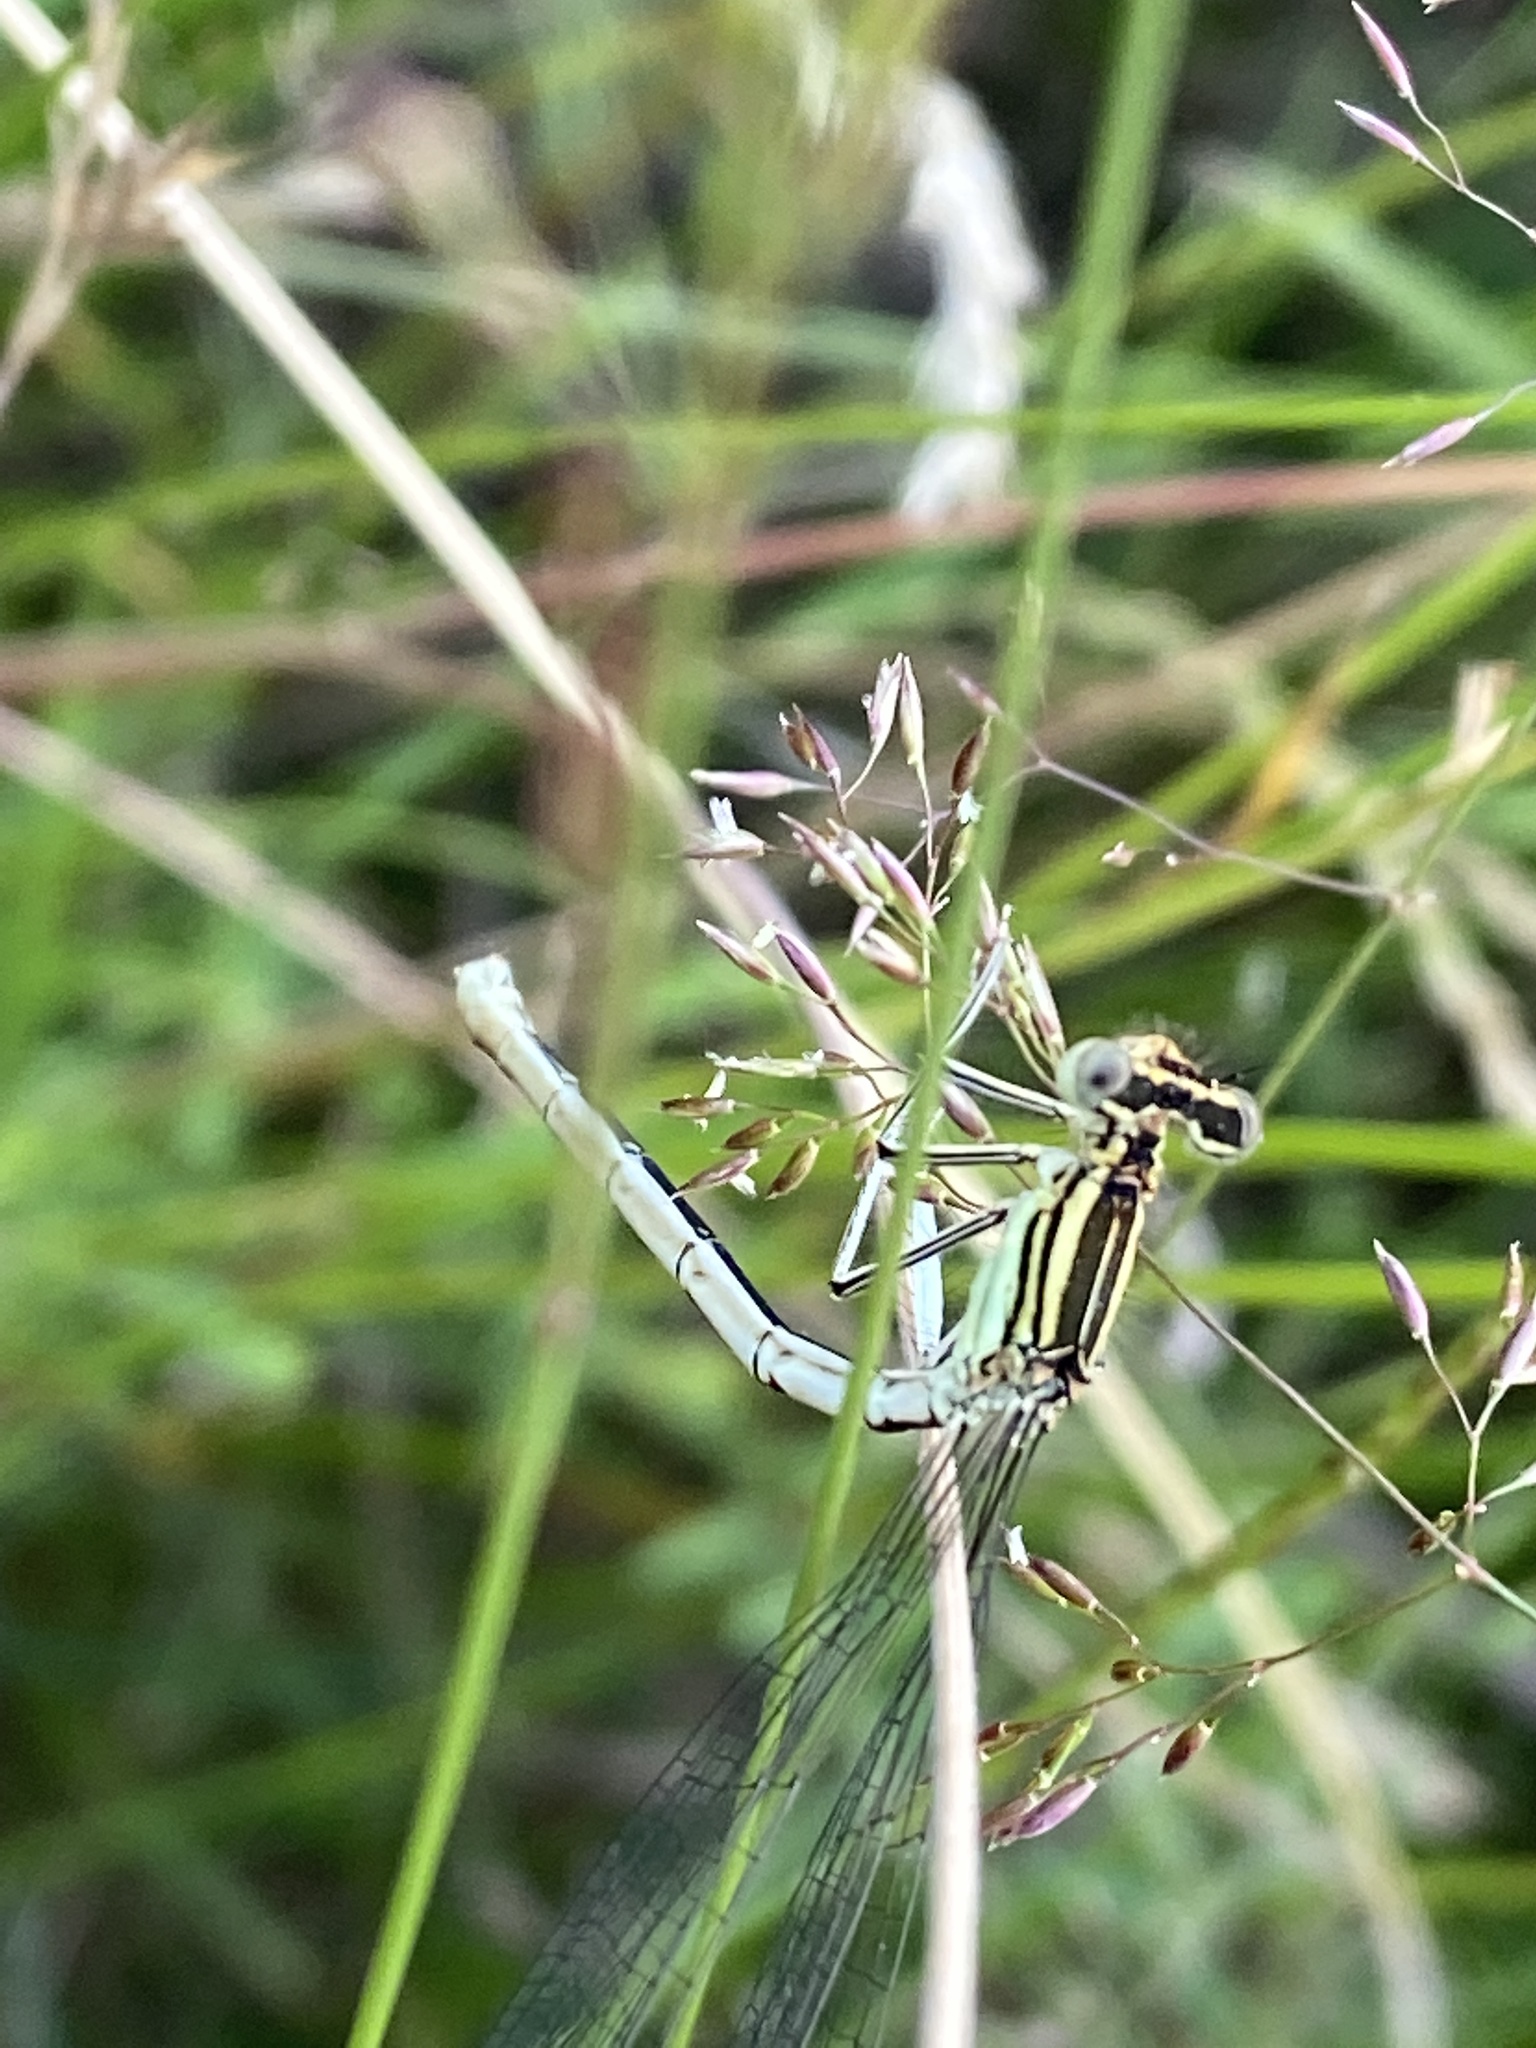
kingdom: Animalia
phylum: Arthropoda
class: Insecta
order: Odonata
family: Platycnemididae
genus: Platycnemis
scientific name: Platycnemis pennipes
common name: White-legged damselfly
